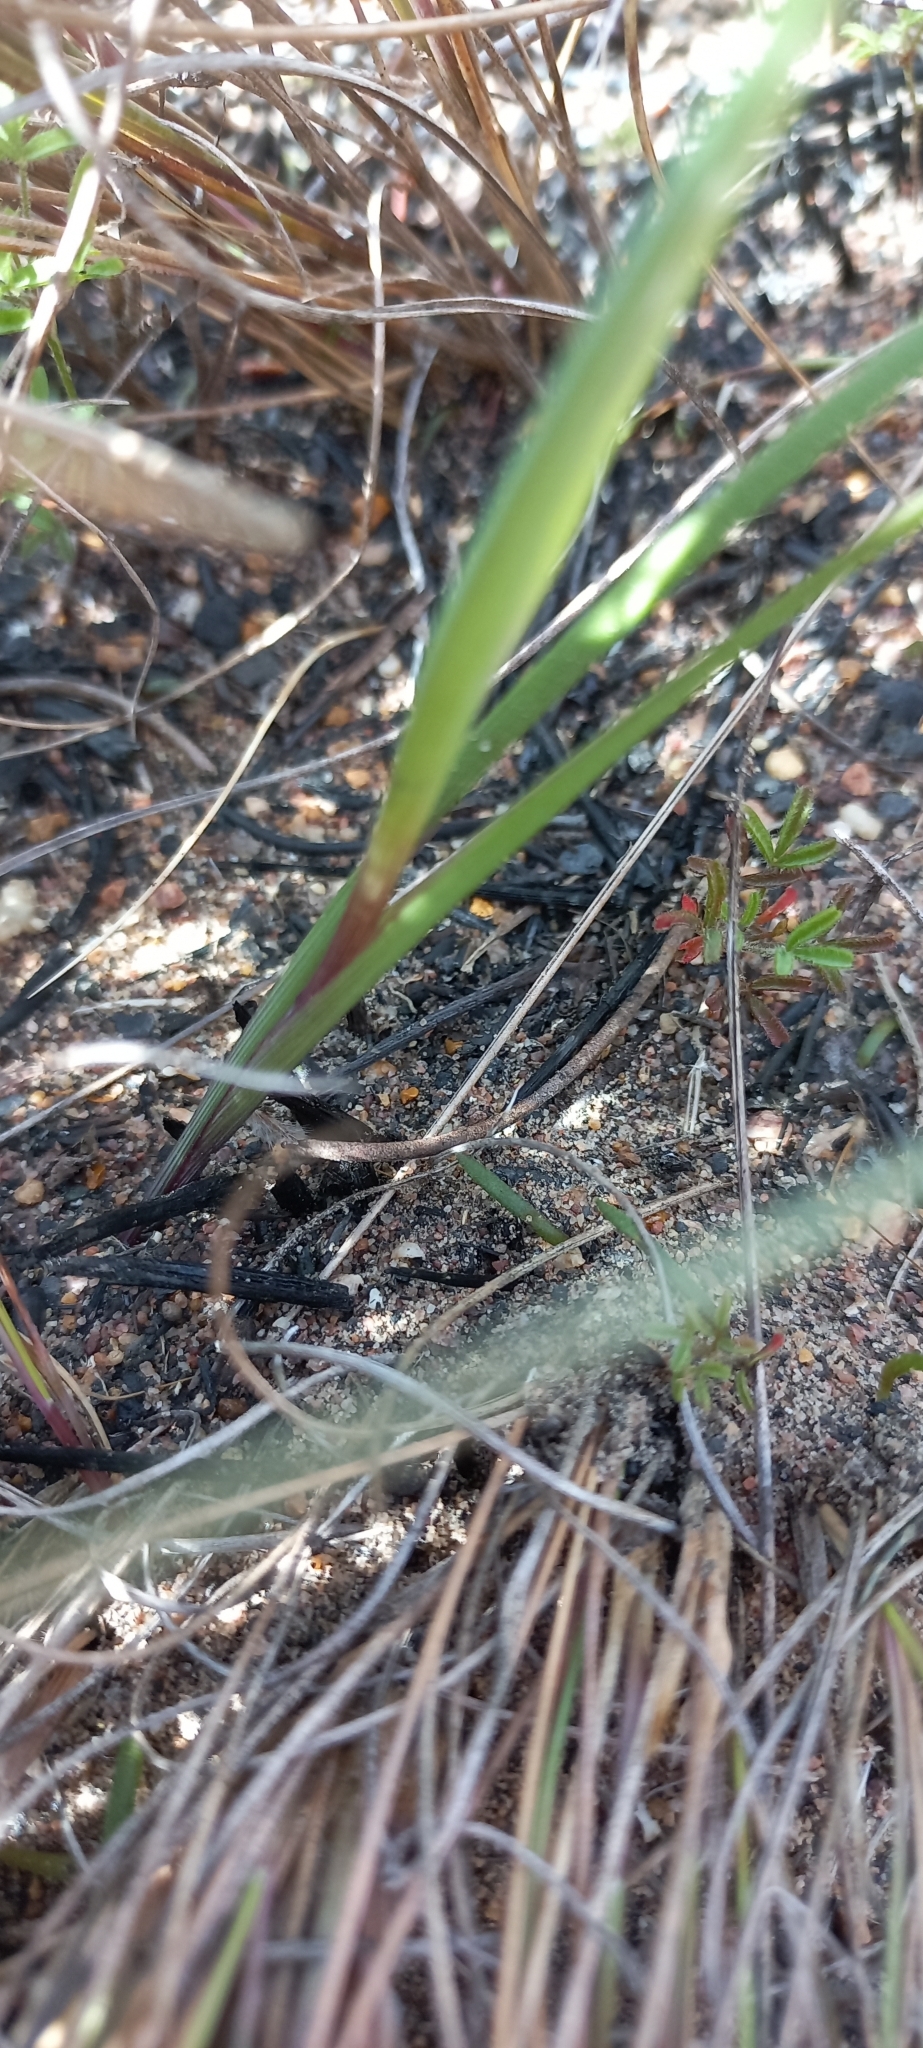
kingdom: Plantae
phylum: Tracheophyta
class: Liliopsida
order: Asparagales
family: Iridaceae
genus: Gladiolus
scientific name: Gladiolus alatus
